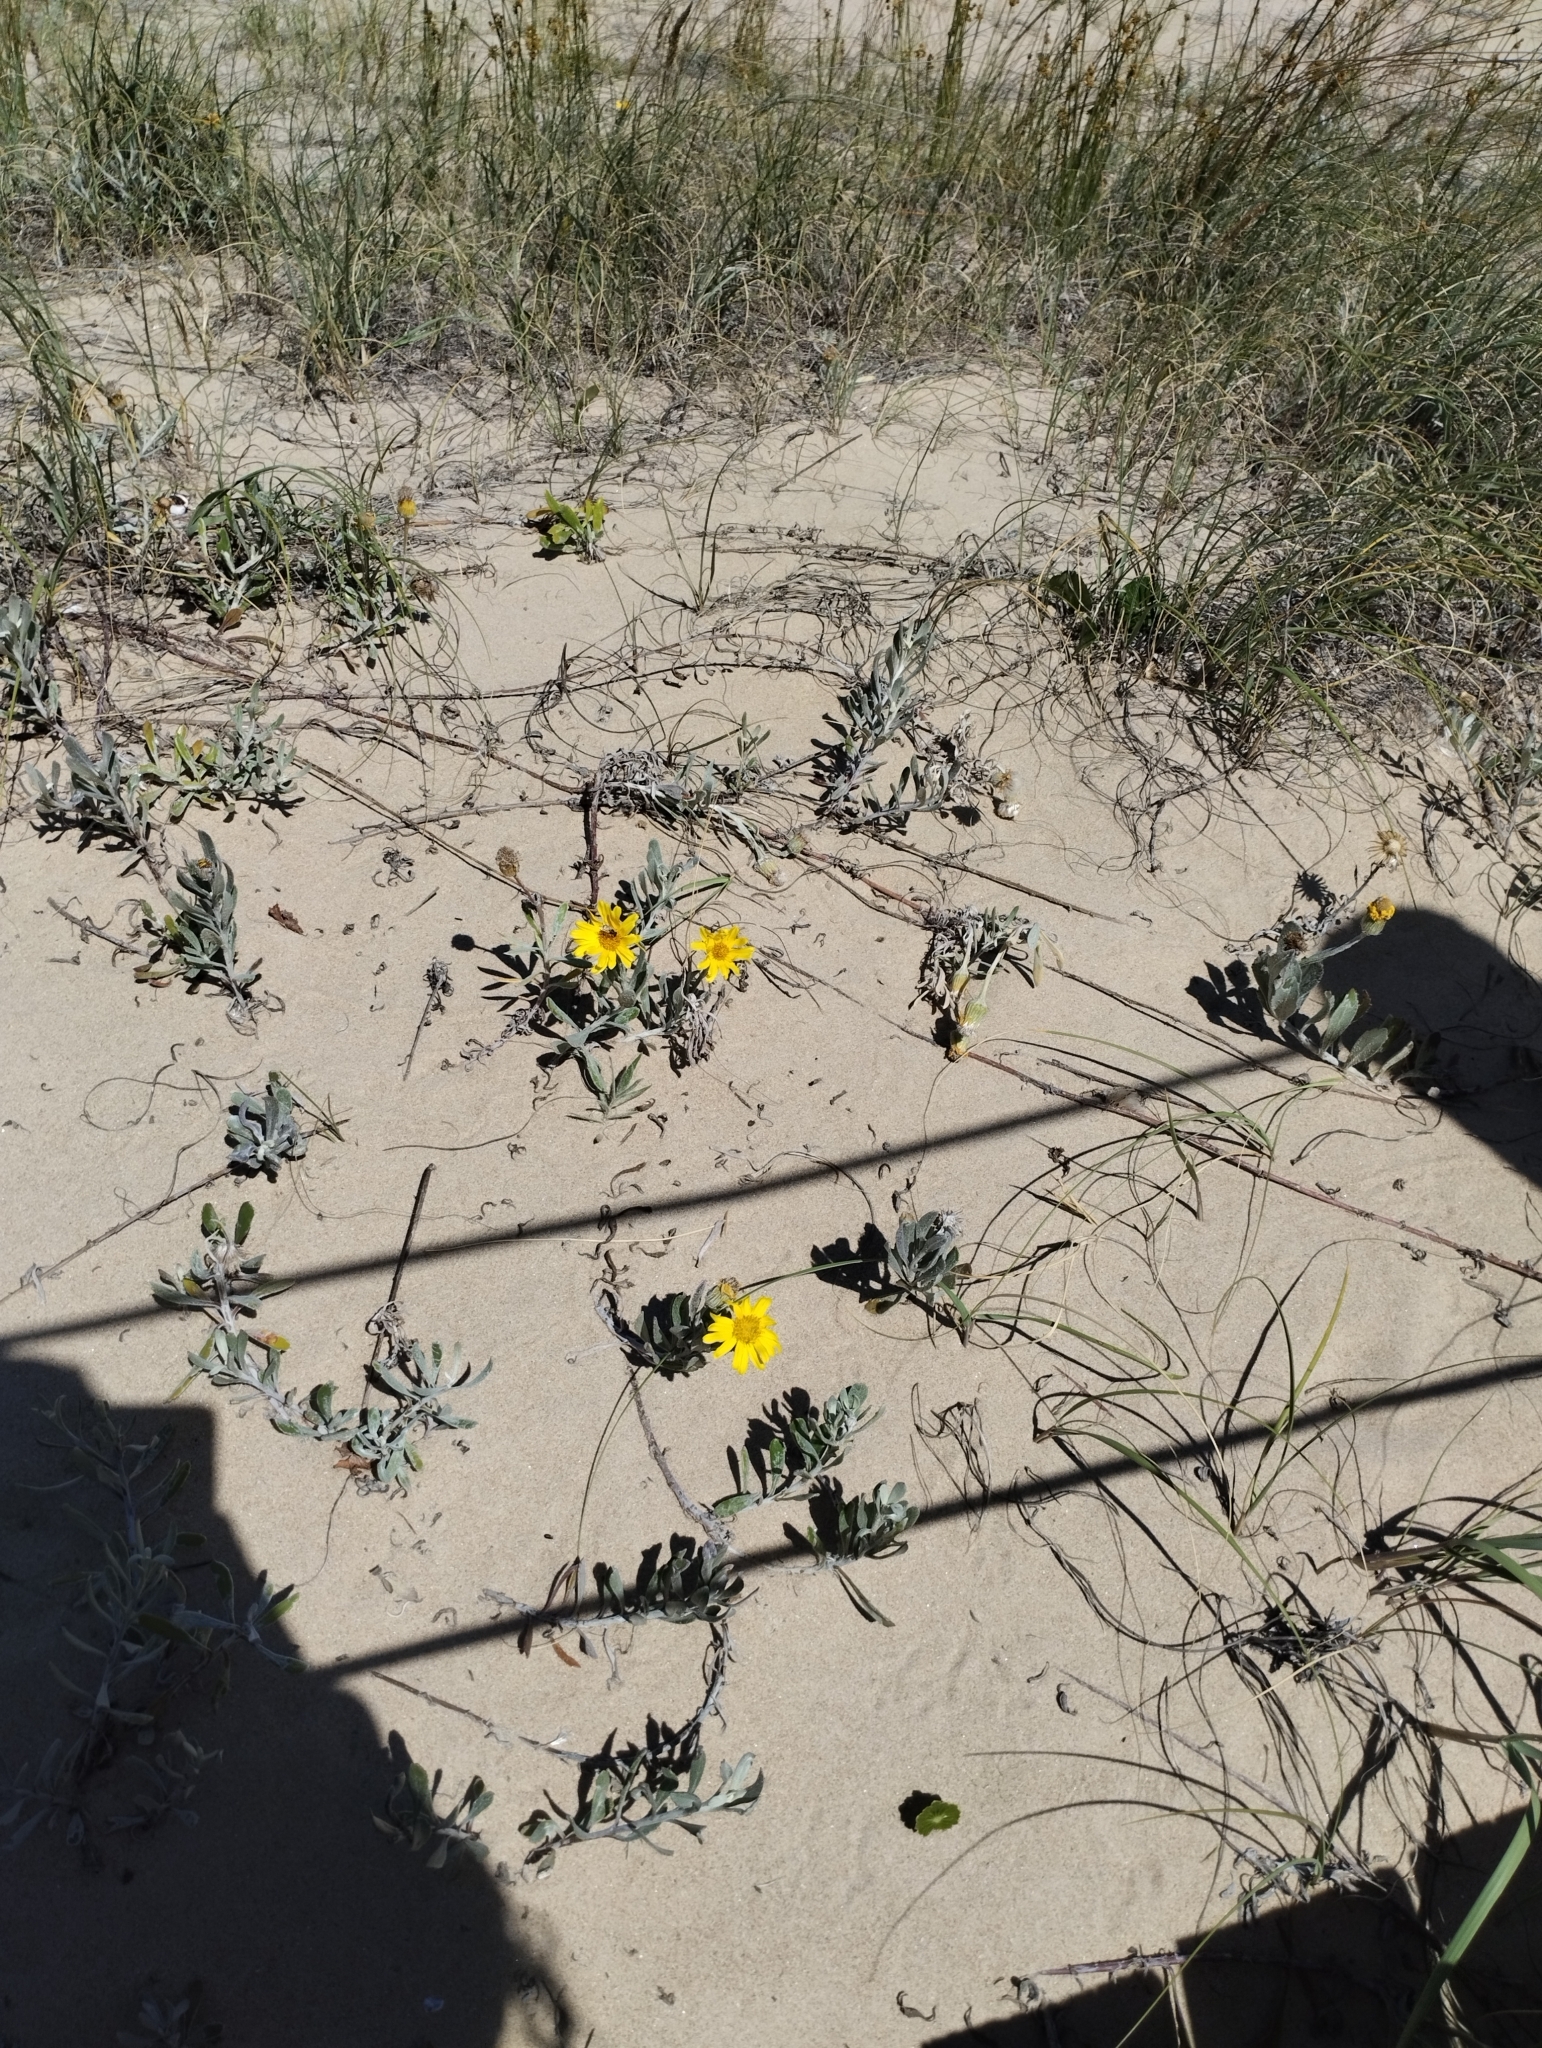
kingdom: Plantae
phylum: Tracheophyta
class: Magnoliopsida
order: Asterales
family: Asteraceae
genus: Senecio
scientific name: Senecio crassiflorus
